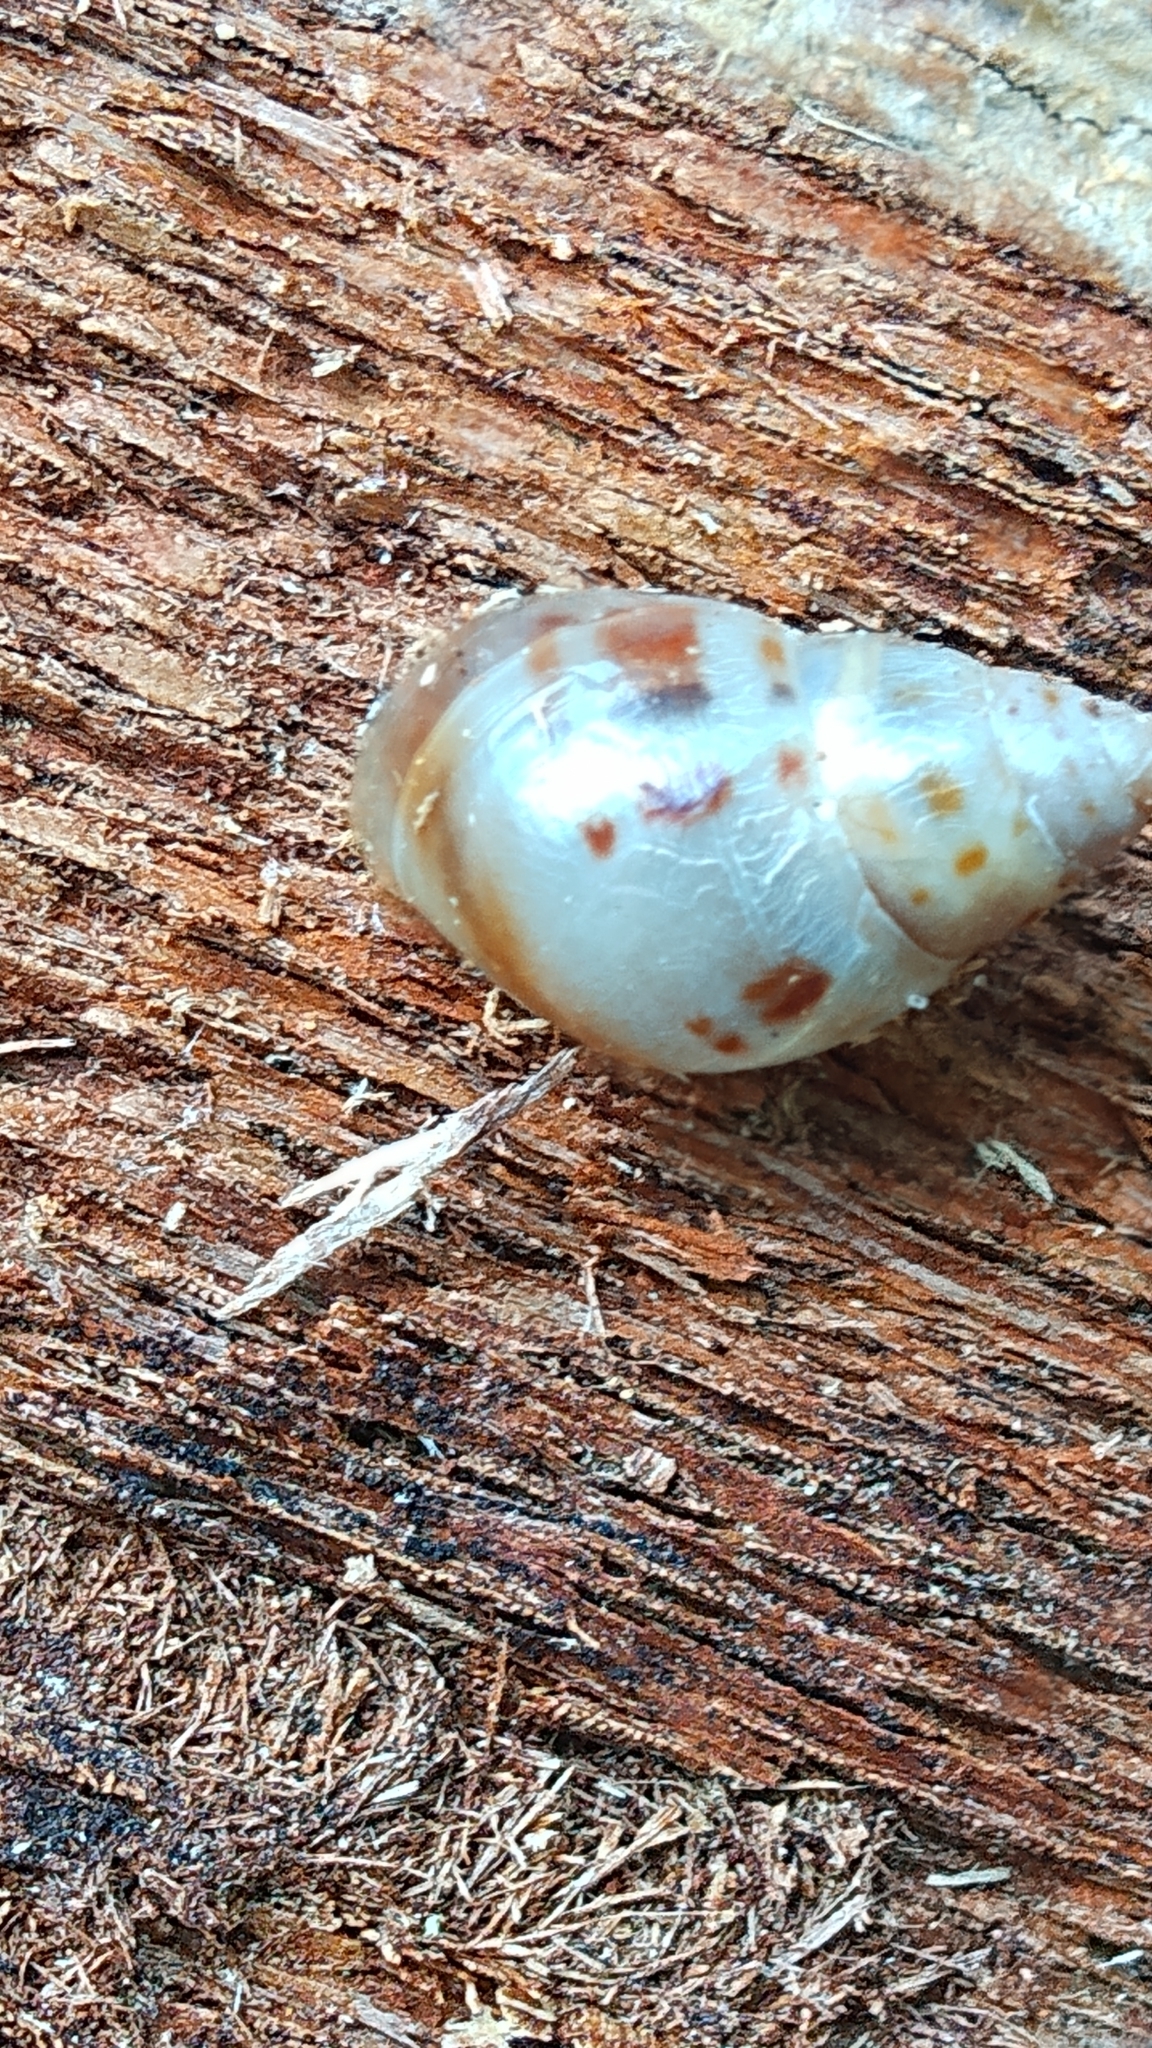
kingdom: Animalia
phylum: Mollusca
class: Gastropoda
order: Stylommatophora
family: Bulimulidae
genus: Drymaeus
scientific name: Drymaeus dormani
